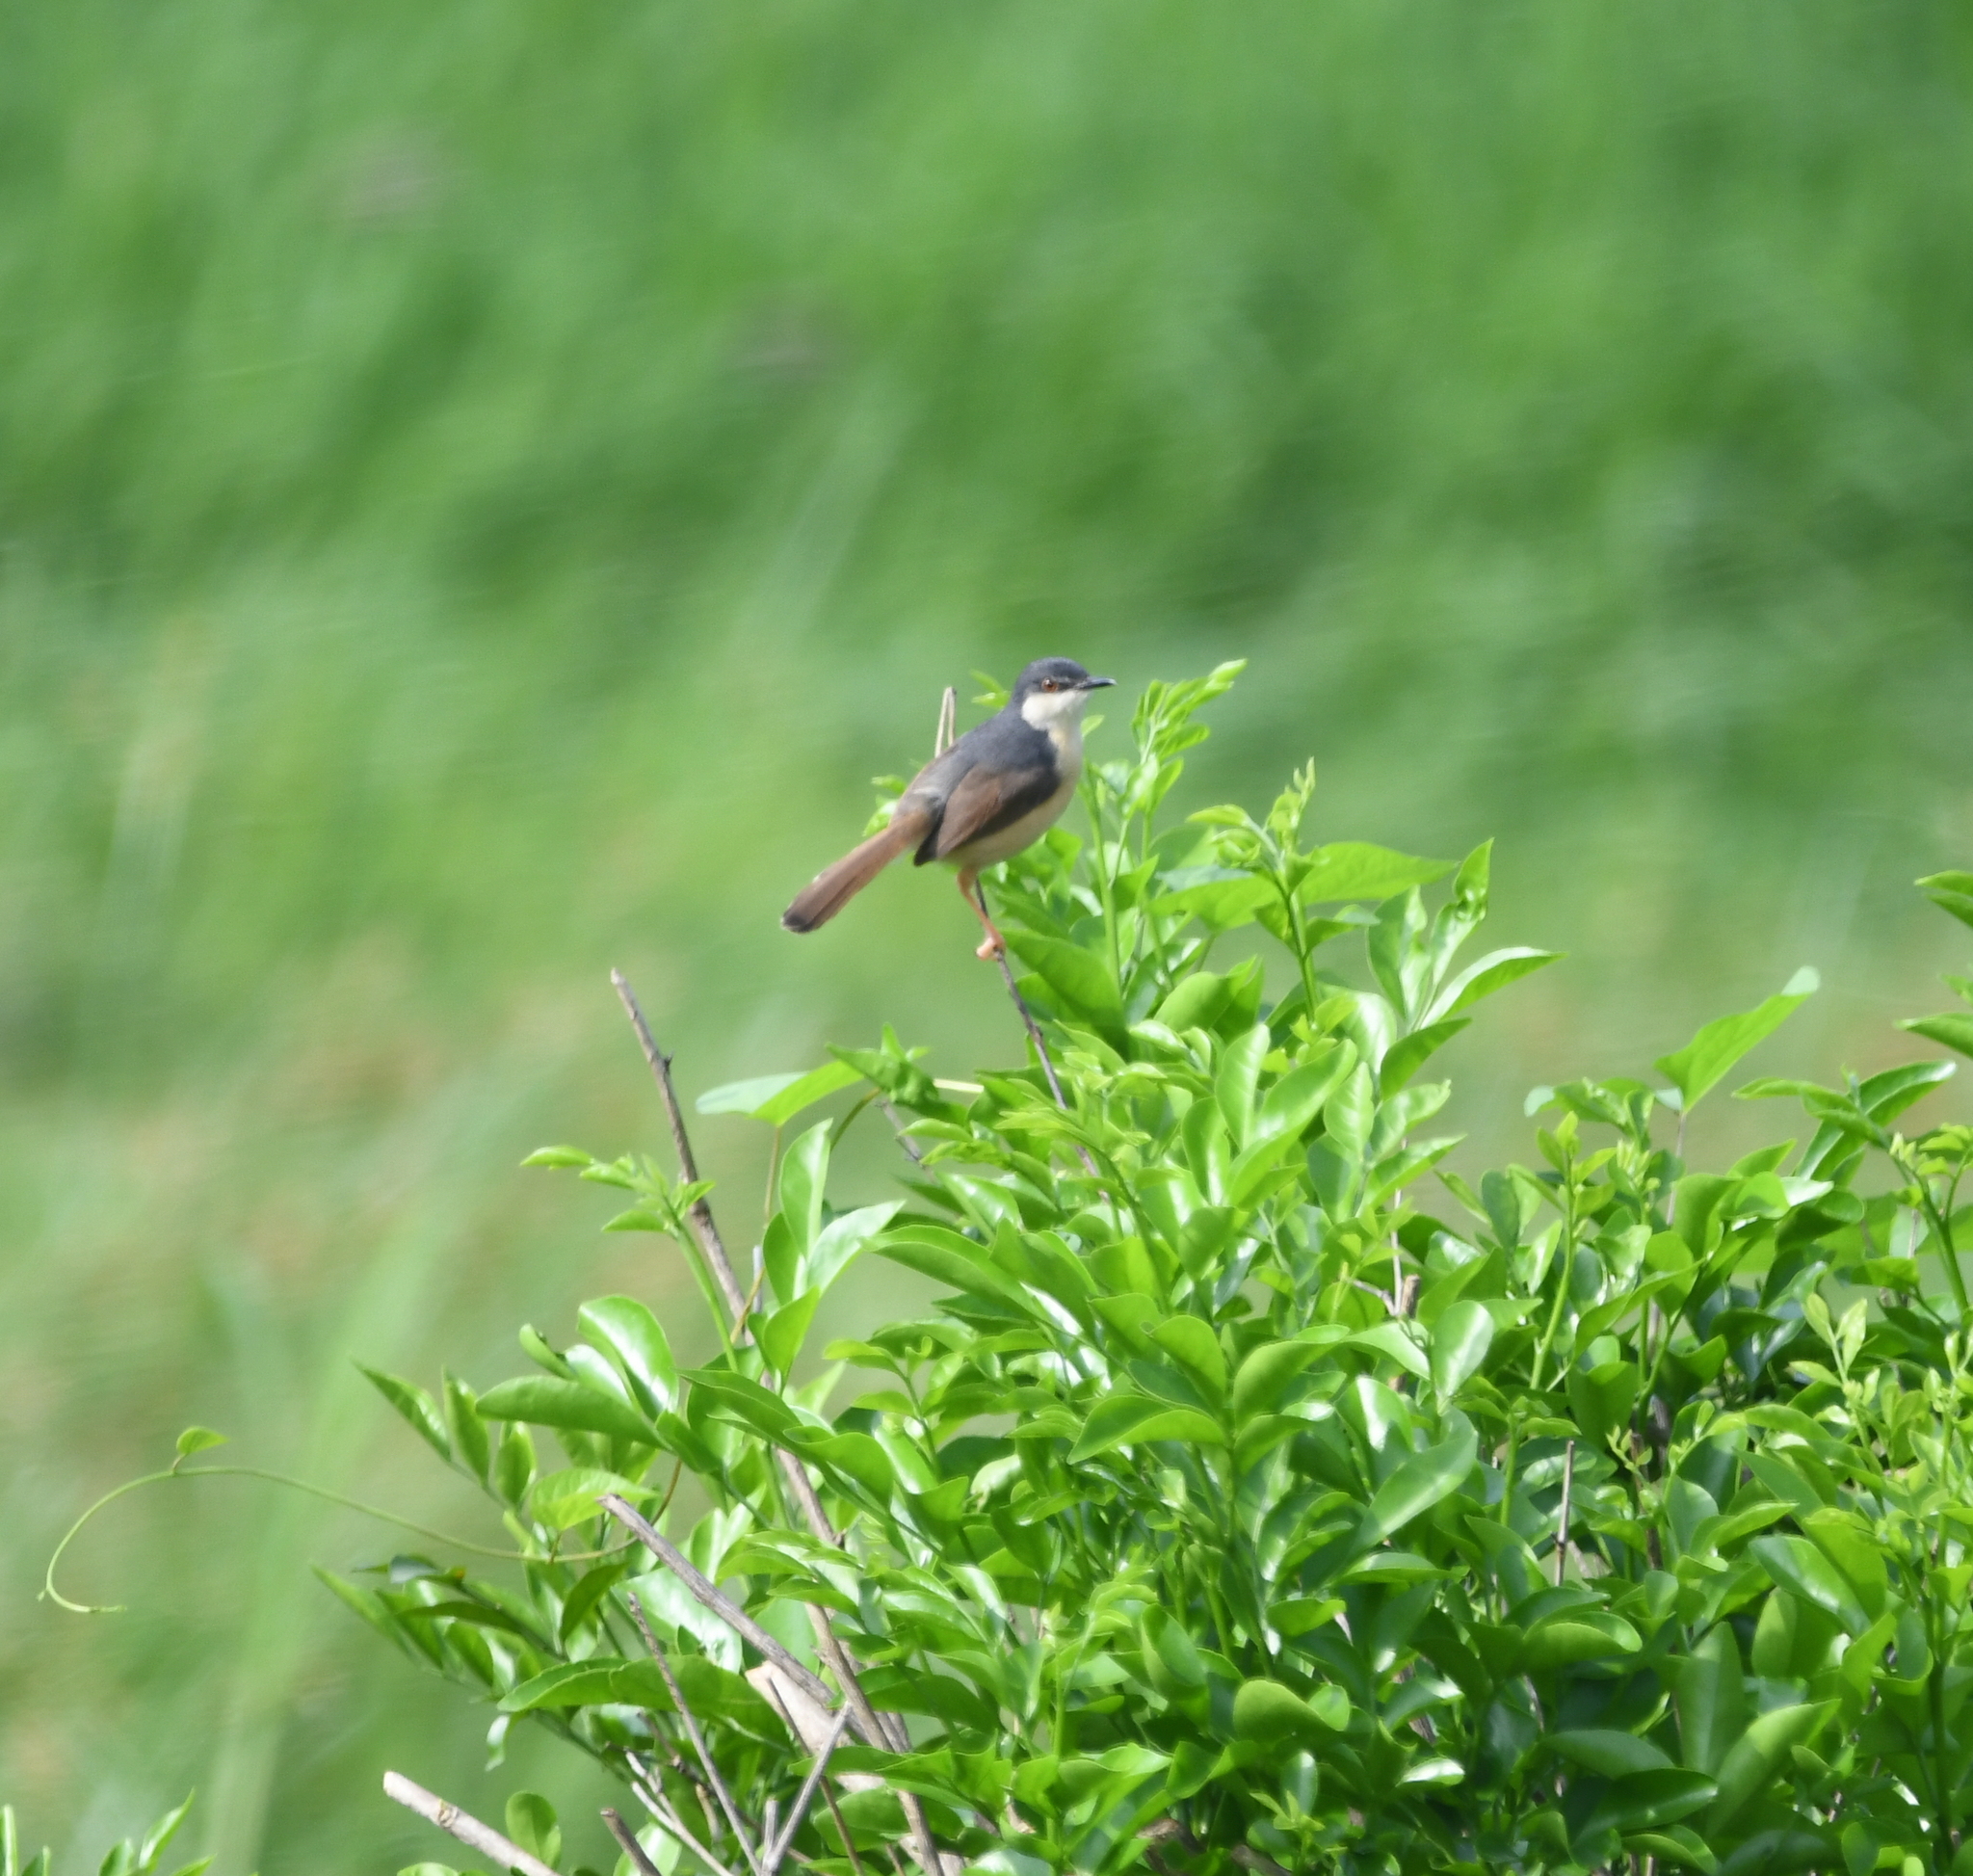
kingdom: Animalia
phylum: Chordata
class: Aves
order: Passeriformes
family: Cisticolidae
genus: Prinia
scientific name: Prinia socialis
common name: Ashy prinia
